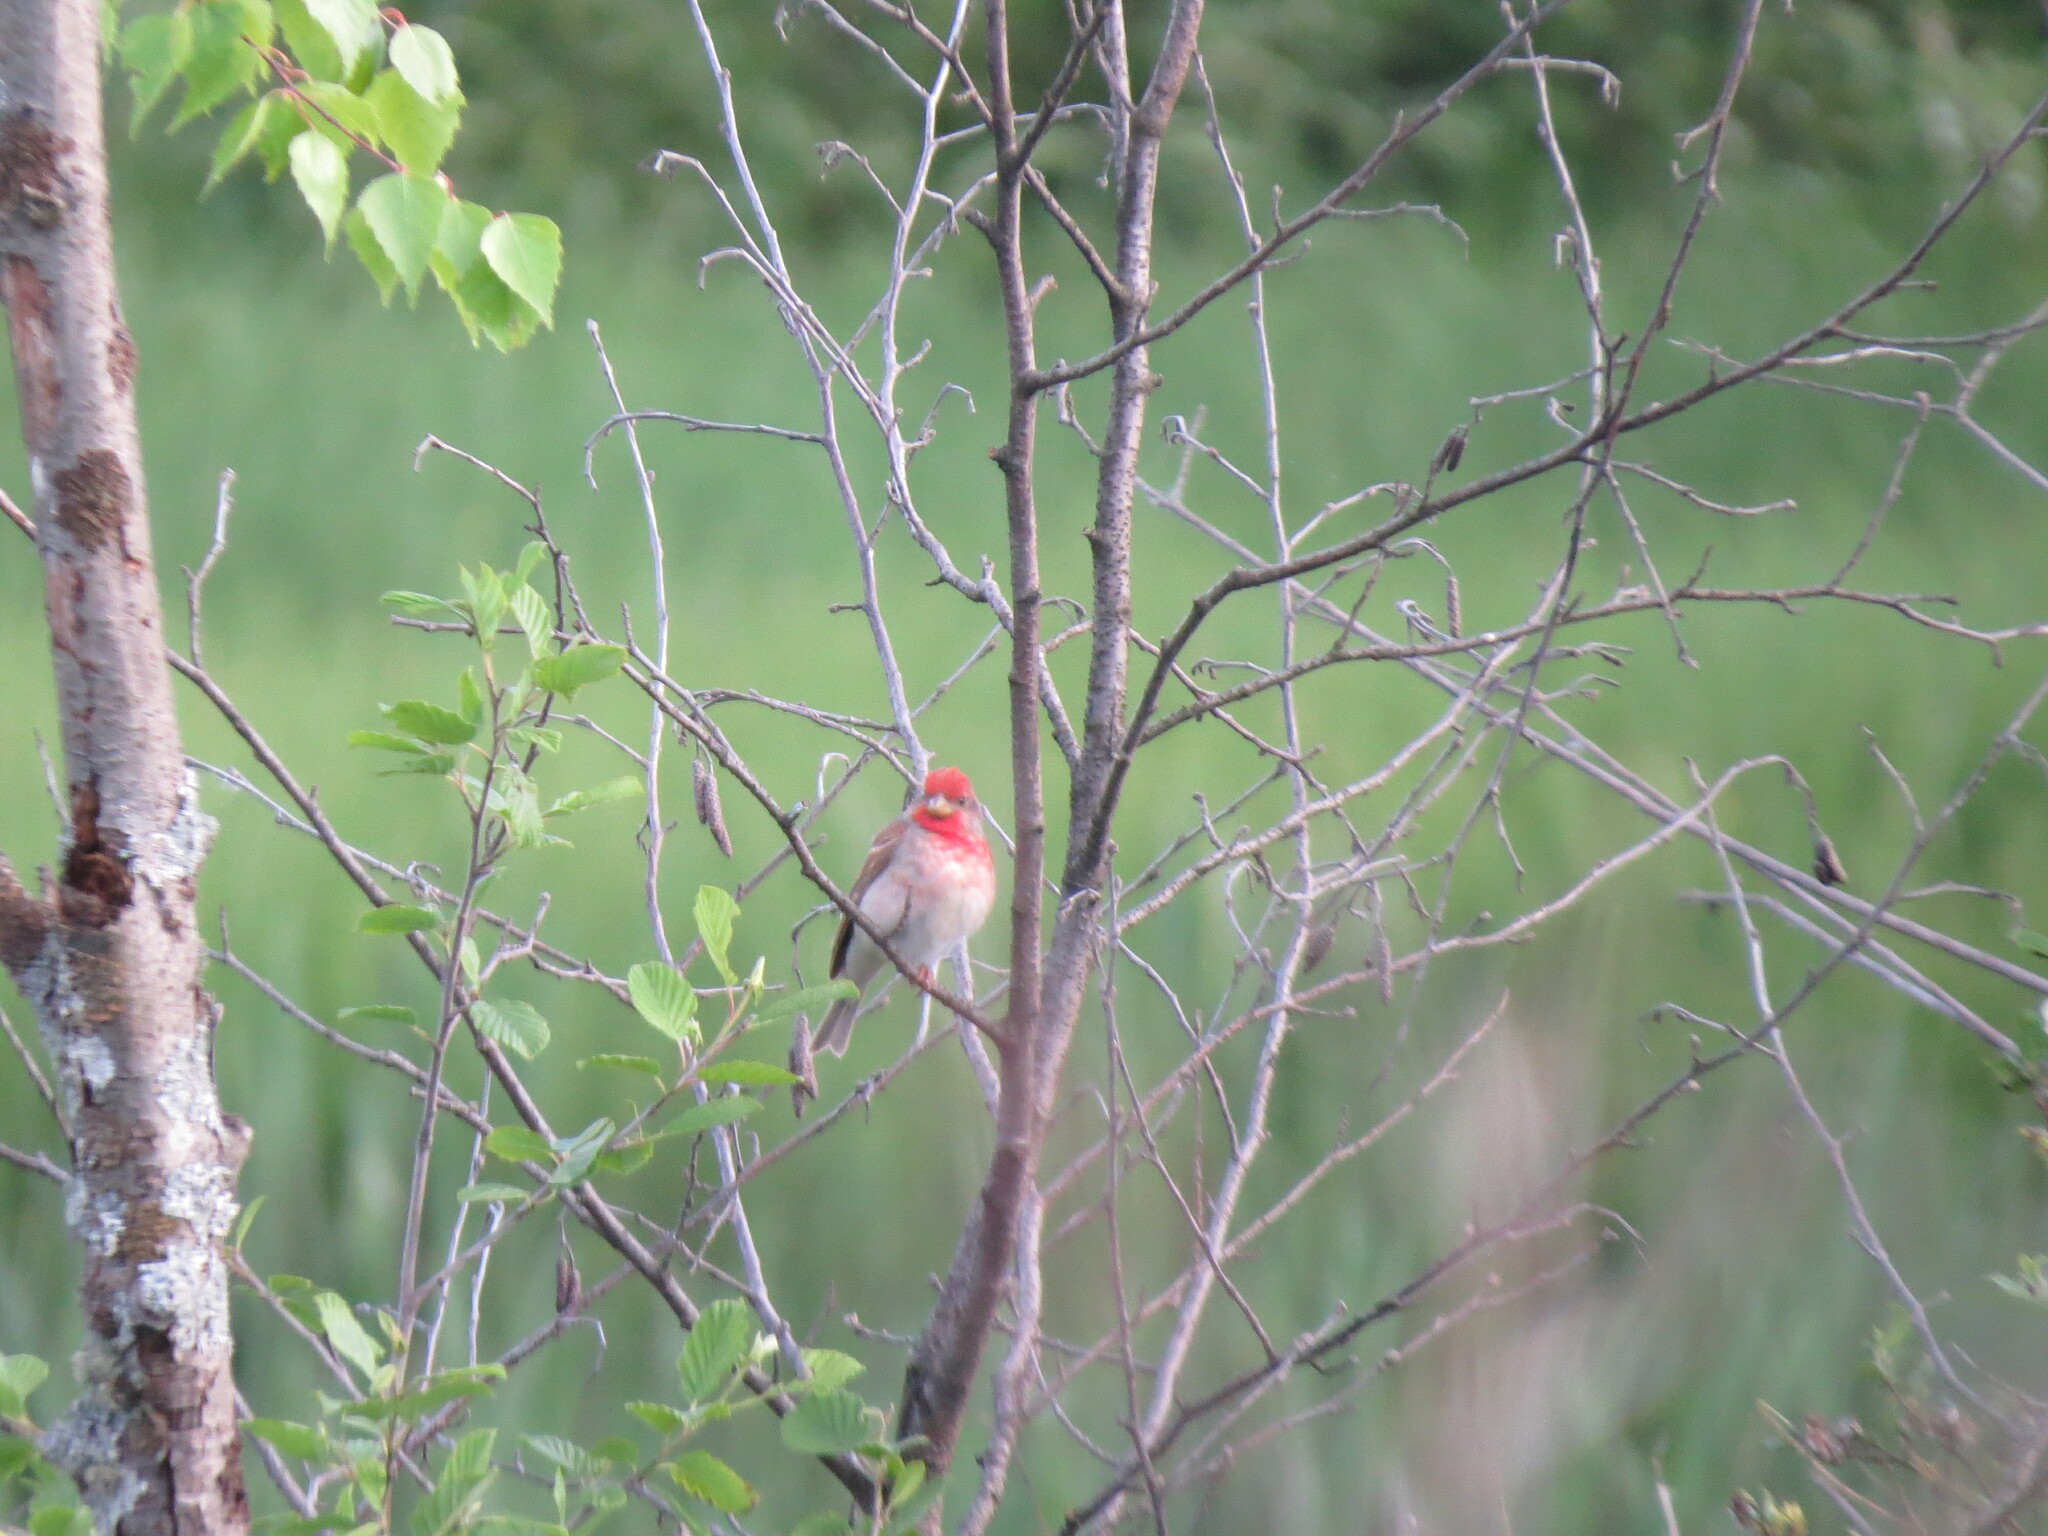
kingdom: Animalia
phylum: Chordata
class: Aves
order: Passeriformes
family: Fringillidae
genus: Carpodacus
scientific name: Carpodacus erythrinus
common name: Common rosefinch
